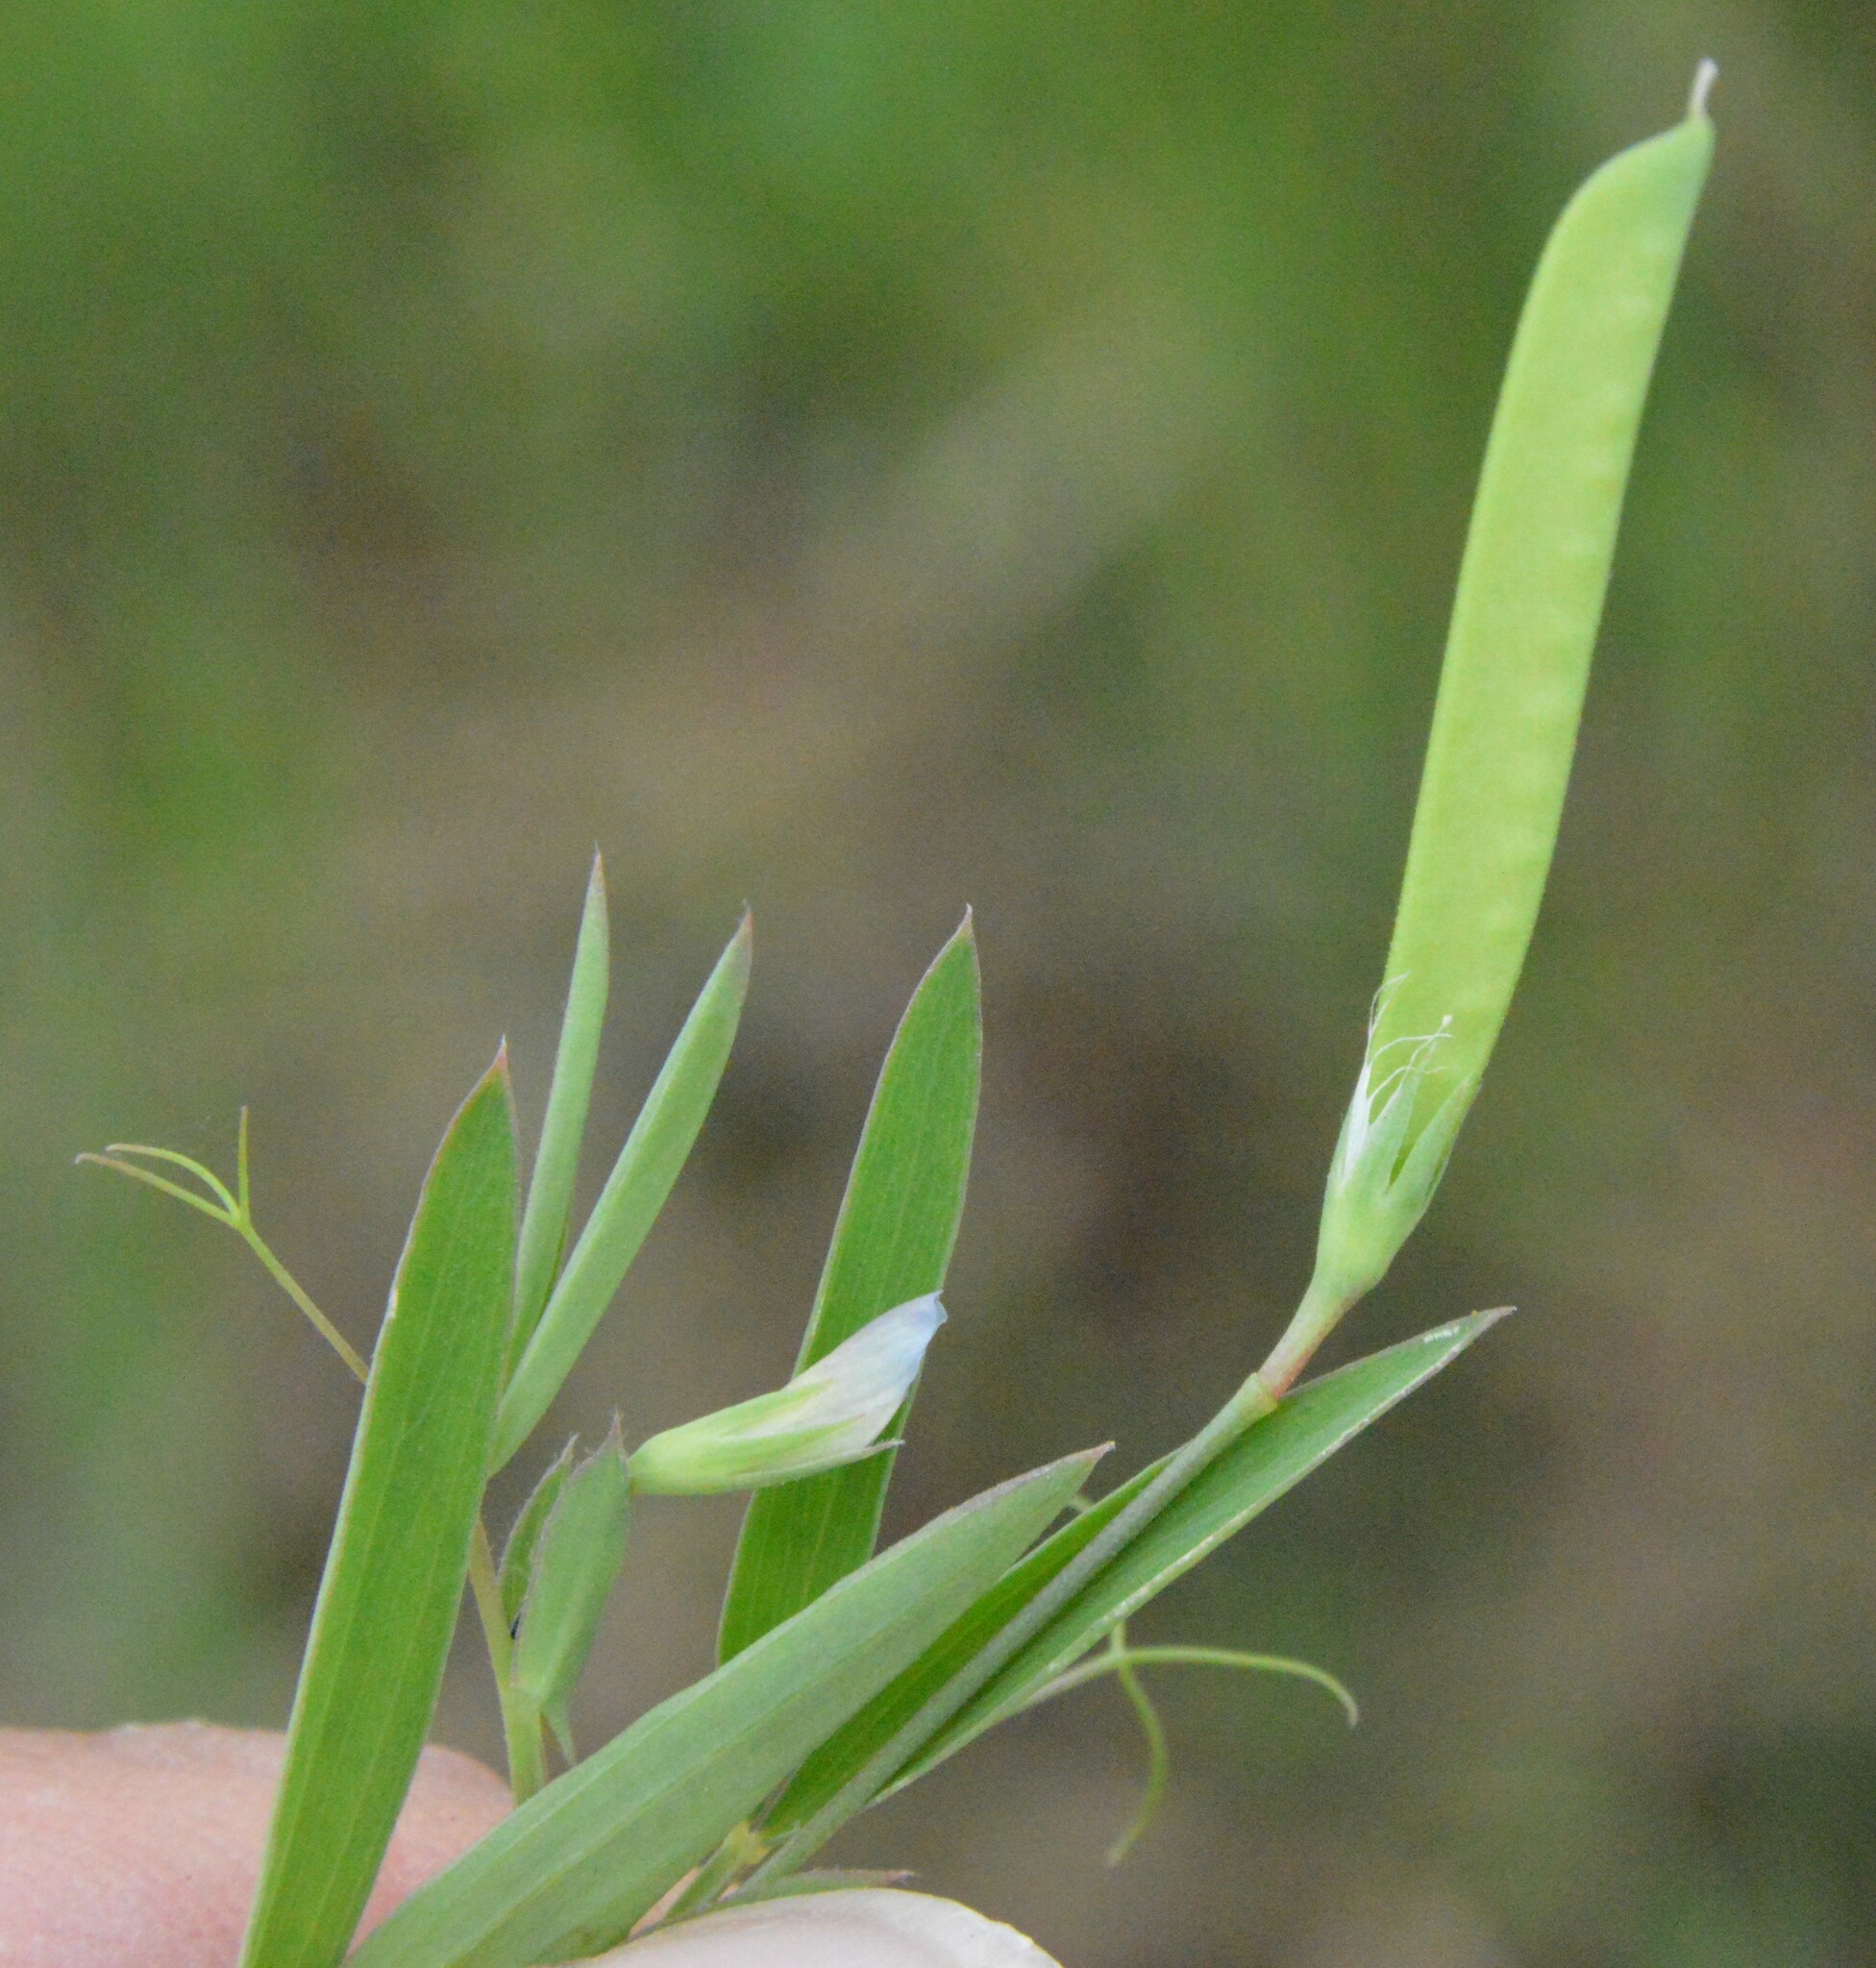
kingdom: Plantae
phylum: Tracheophyta
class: Magnoliopsida
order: Fabales
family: Fabaceae
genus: Lathyrus
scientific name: Lathyrus pusillus
